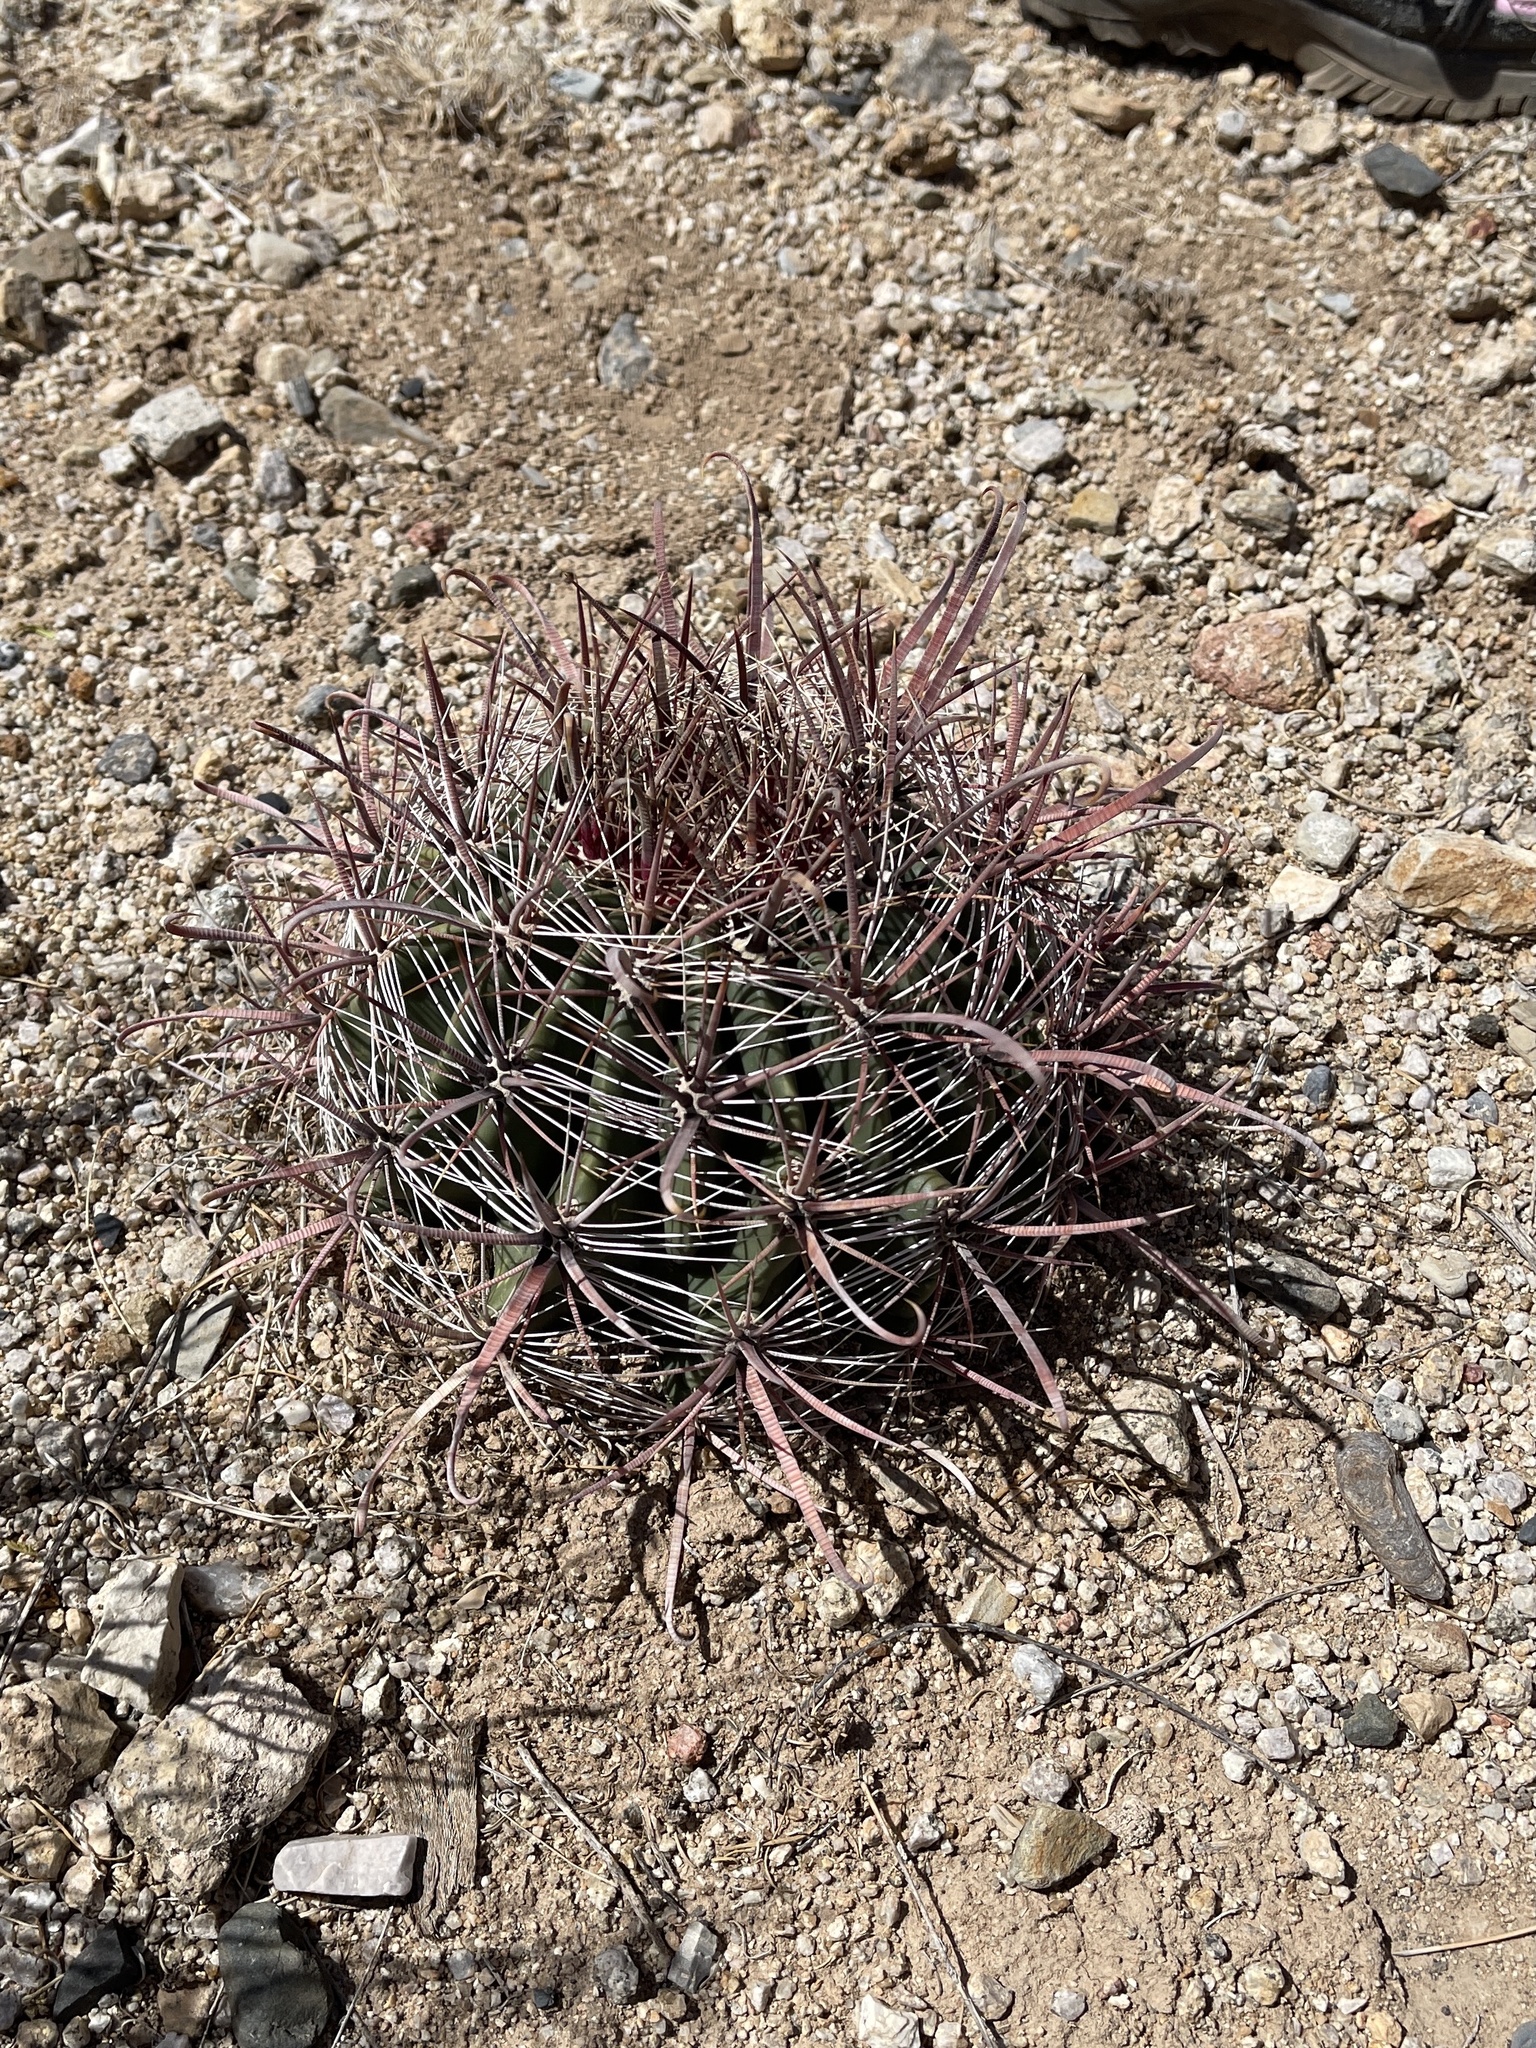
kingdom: Plantae
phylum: Tracheophyta
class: Magnoliopsida
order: Caryophyllales
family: Cactaceae
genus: Ferocactus
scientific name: Ferocactus wislizeni
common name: Candy barrel cactus
